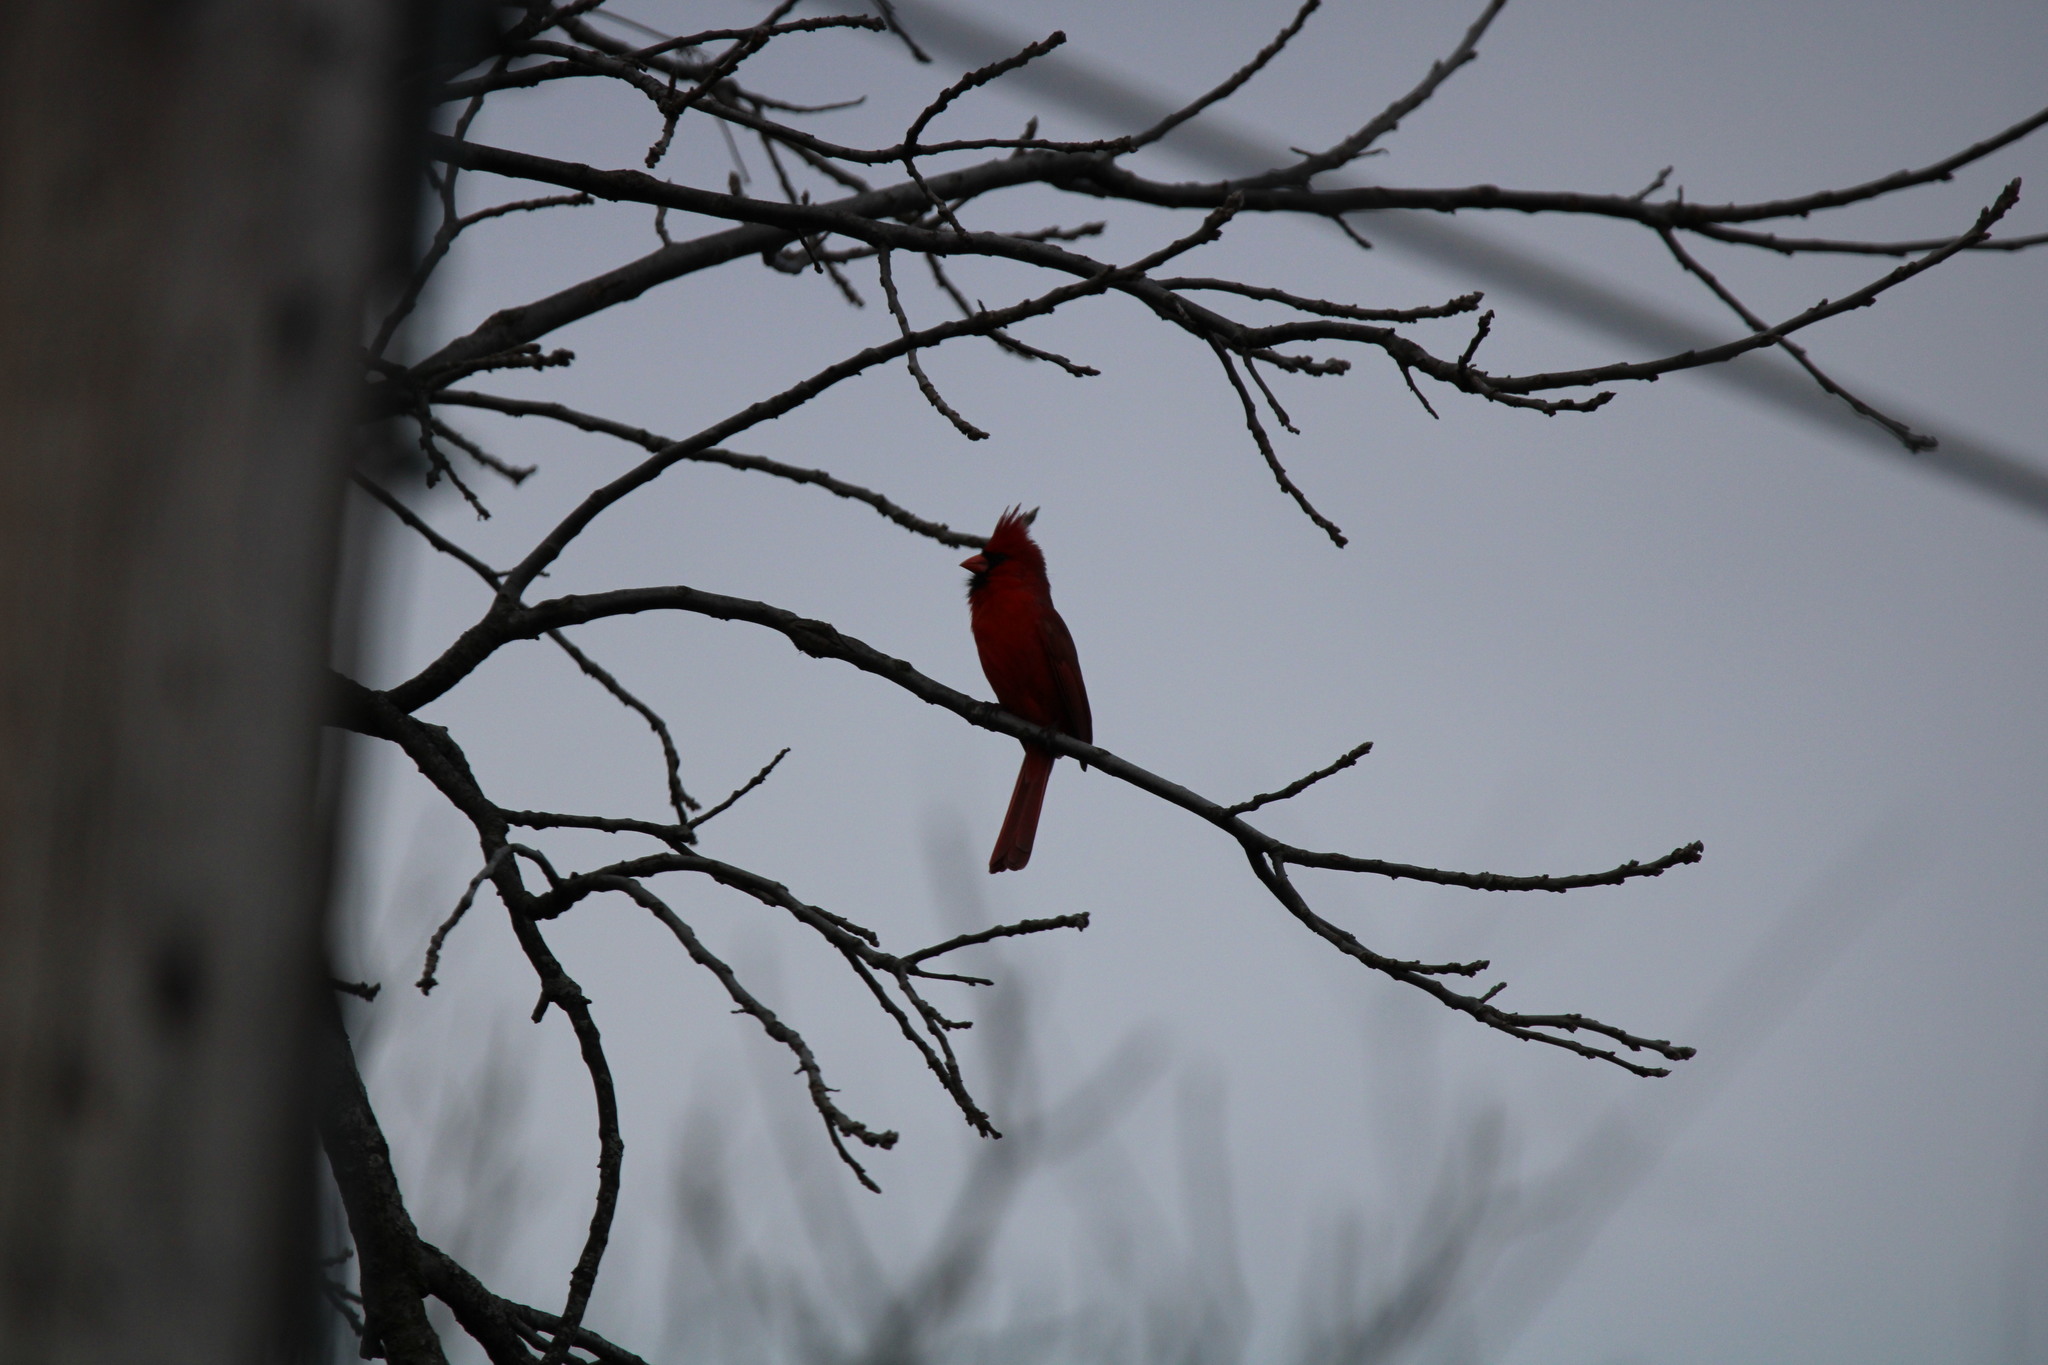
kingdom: Animalia
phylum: Chordata
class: Aves
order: Passeriformes
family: Cardinalidae
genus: Cardinalis
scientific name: Cardinalis cardinalis
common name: Northern cardinal
